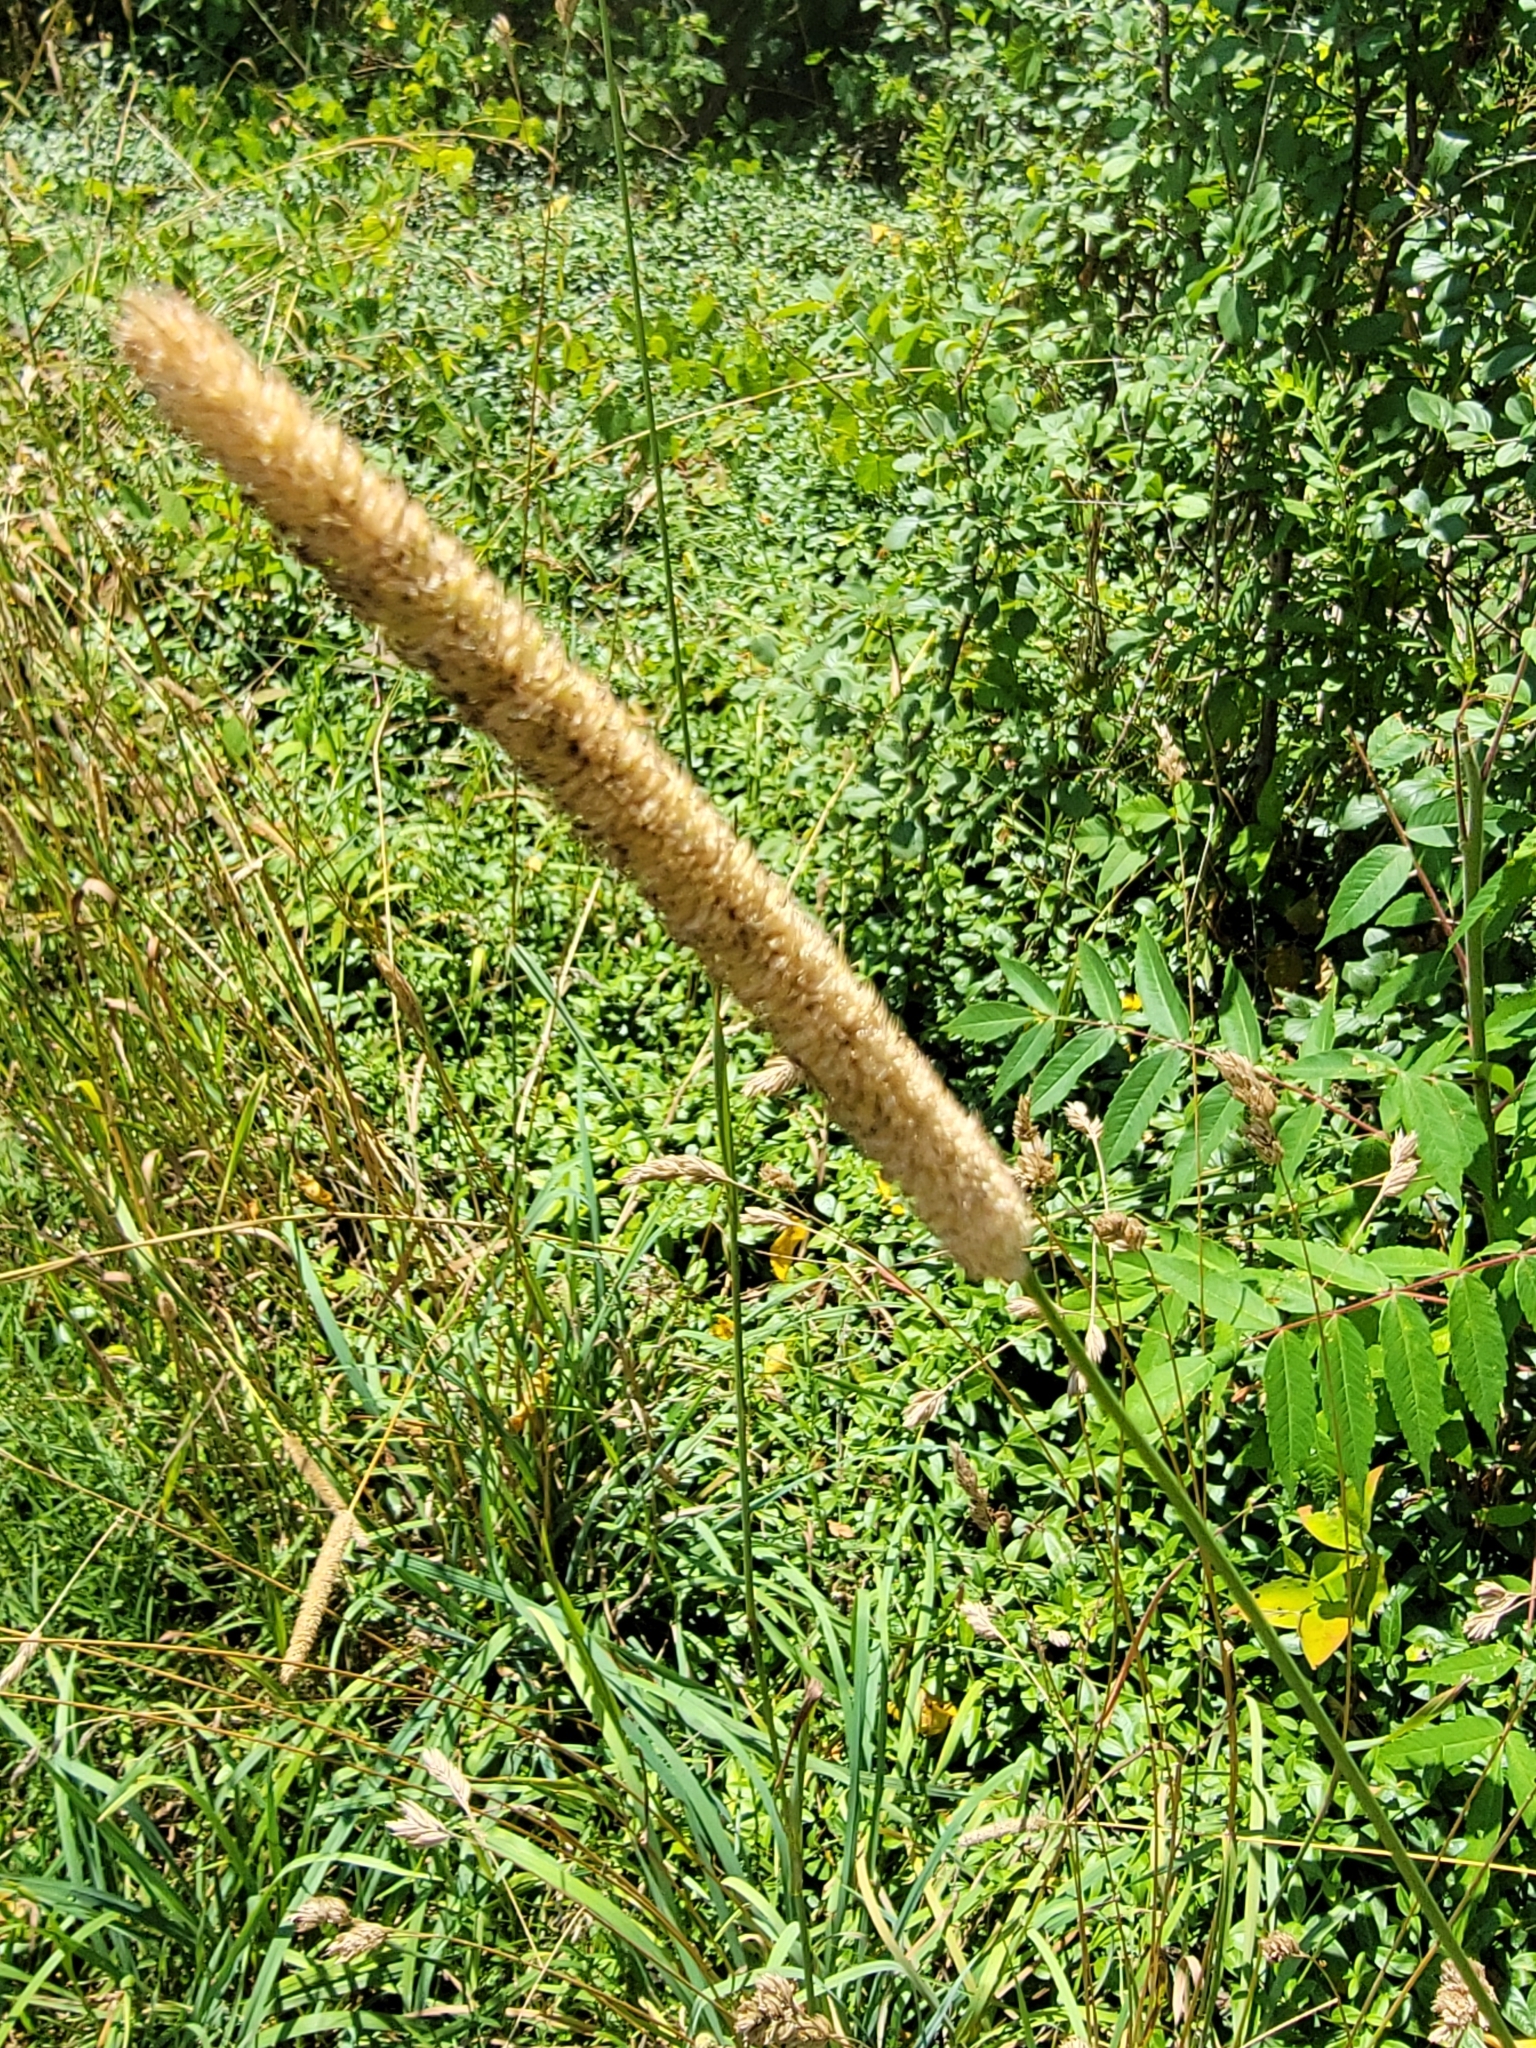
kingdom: Plantae
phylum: Tracheophyta
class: Liliopsida
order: Poales
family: Poaceae
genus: Phleum
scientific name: Phleum pratense
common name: Timothy grass
